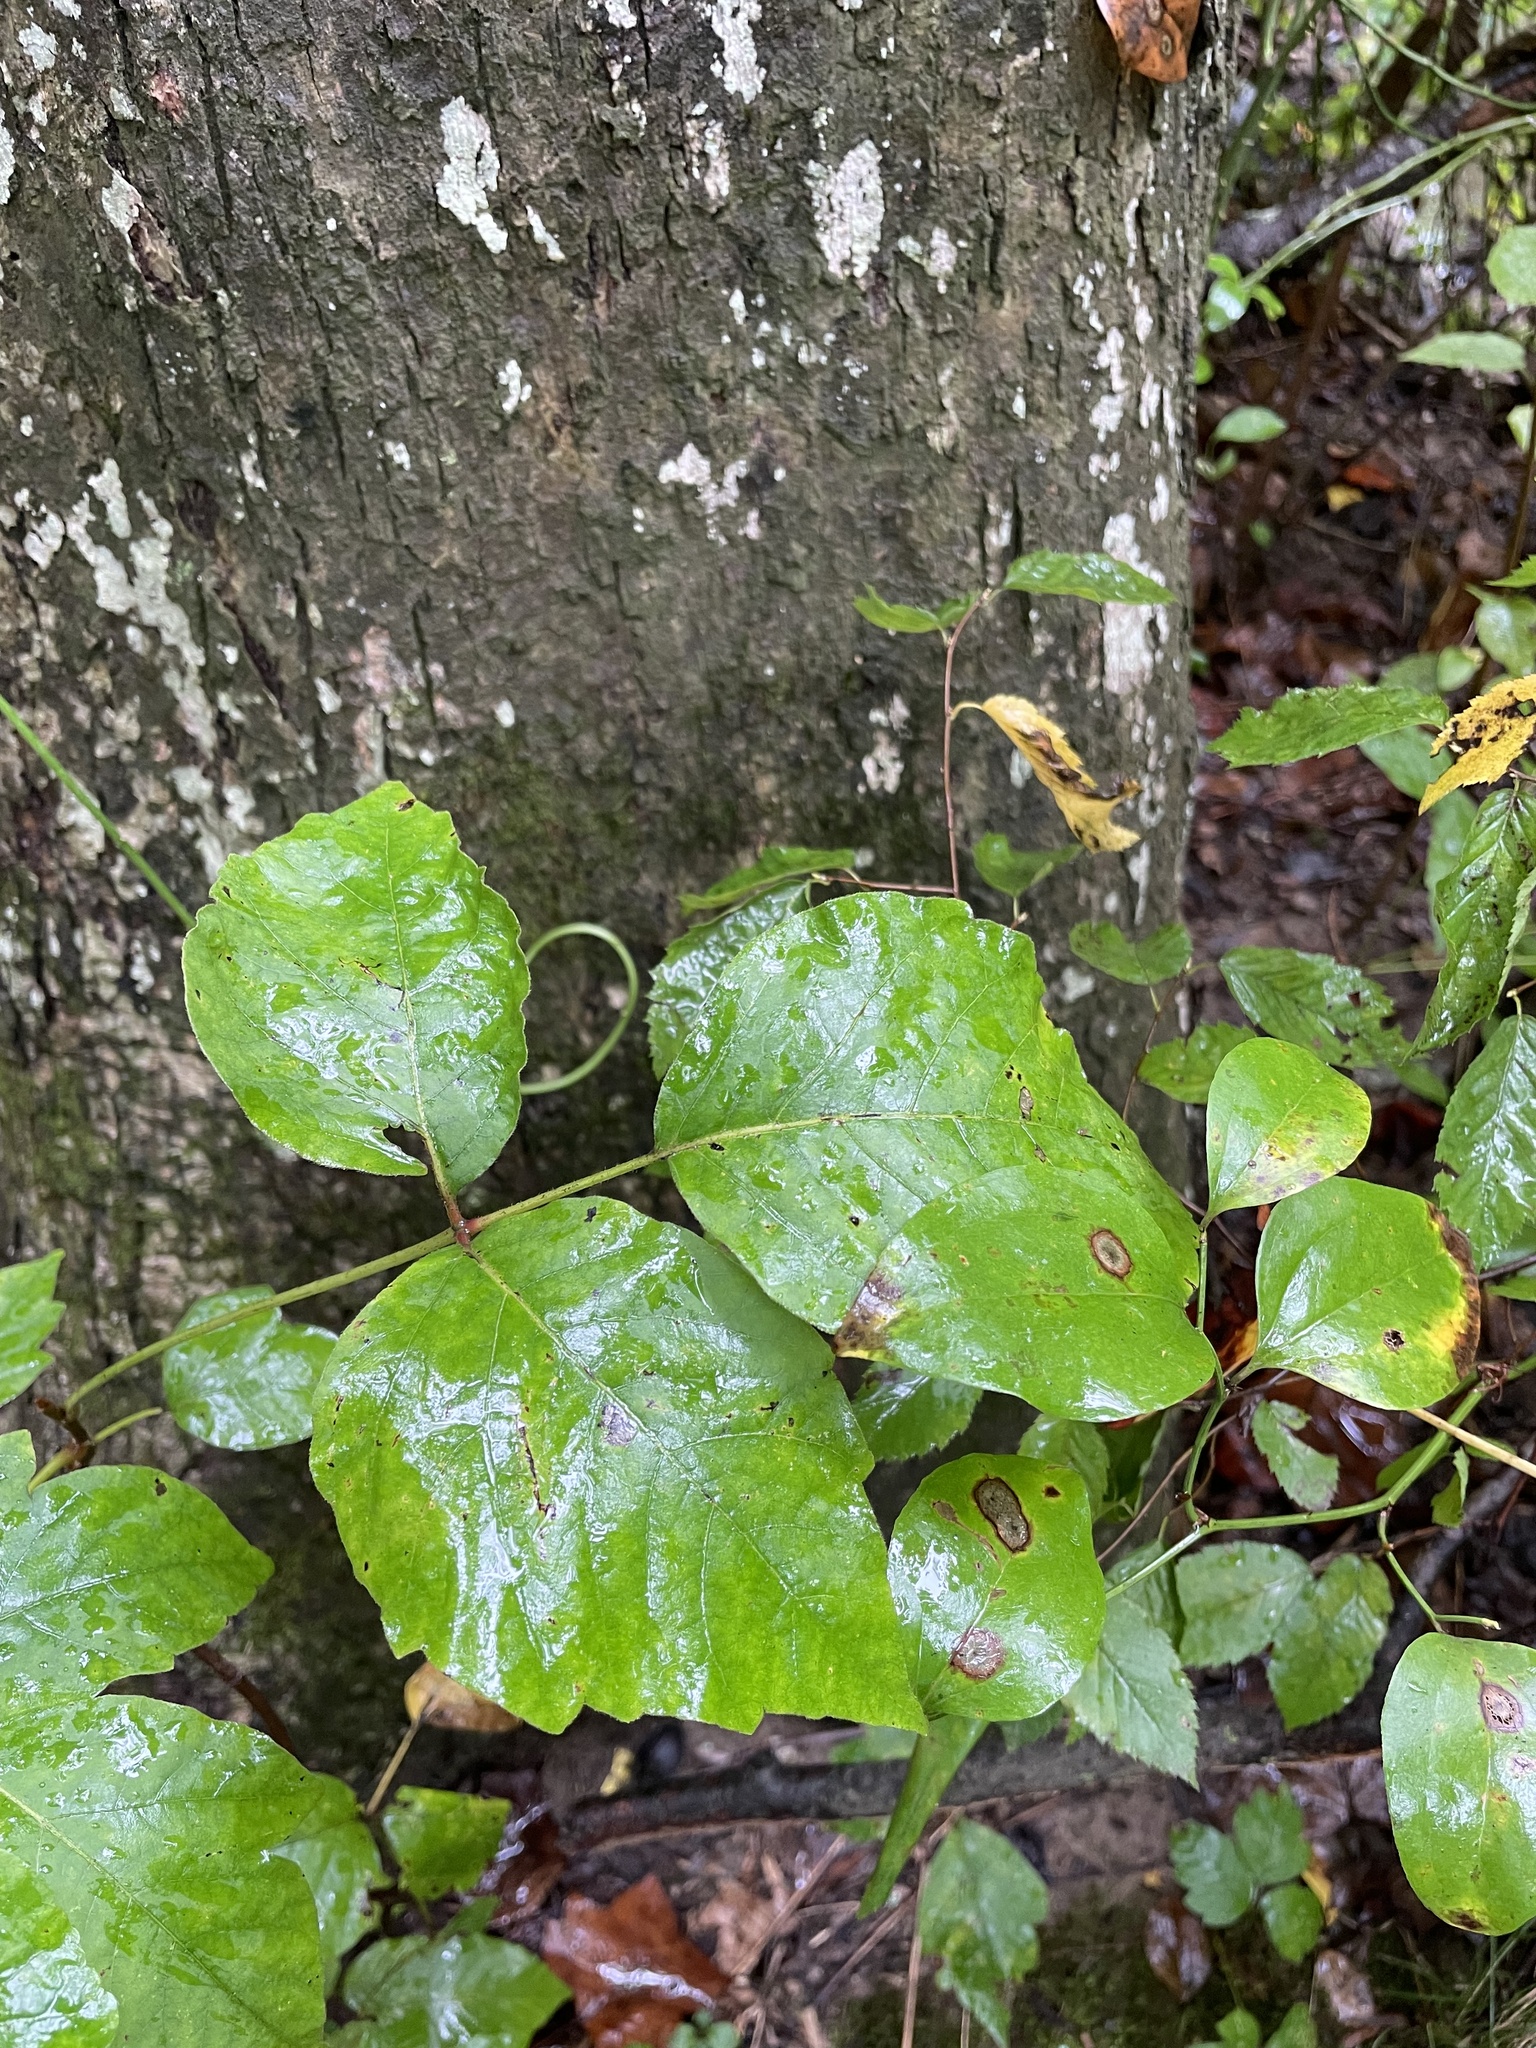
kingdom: Plantae
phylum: Tracheophyta
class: Magnoliopsida
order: Sapindales
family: Anacardiaceae
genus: Toxicodendron
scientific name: Toxicodendron radicans
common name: Poison ivy
